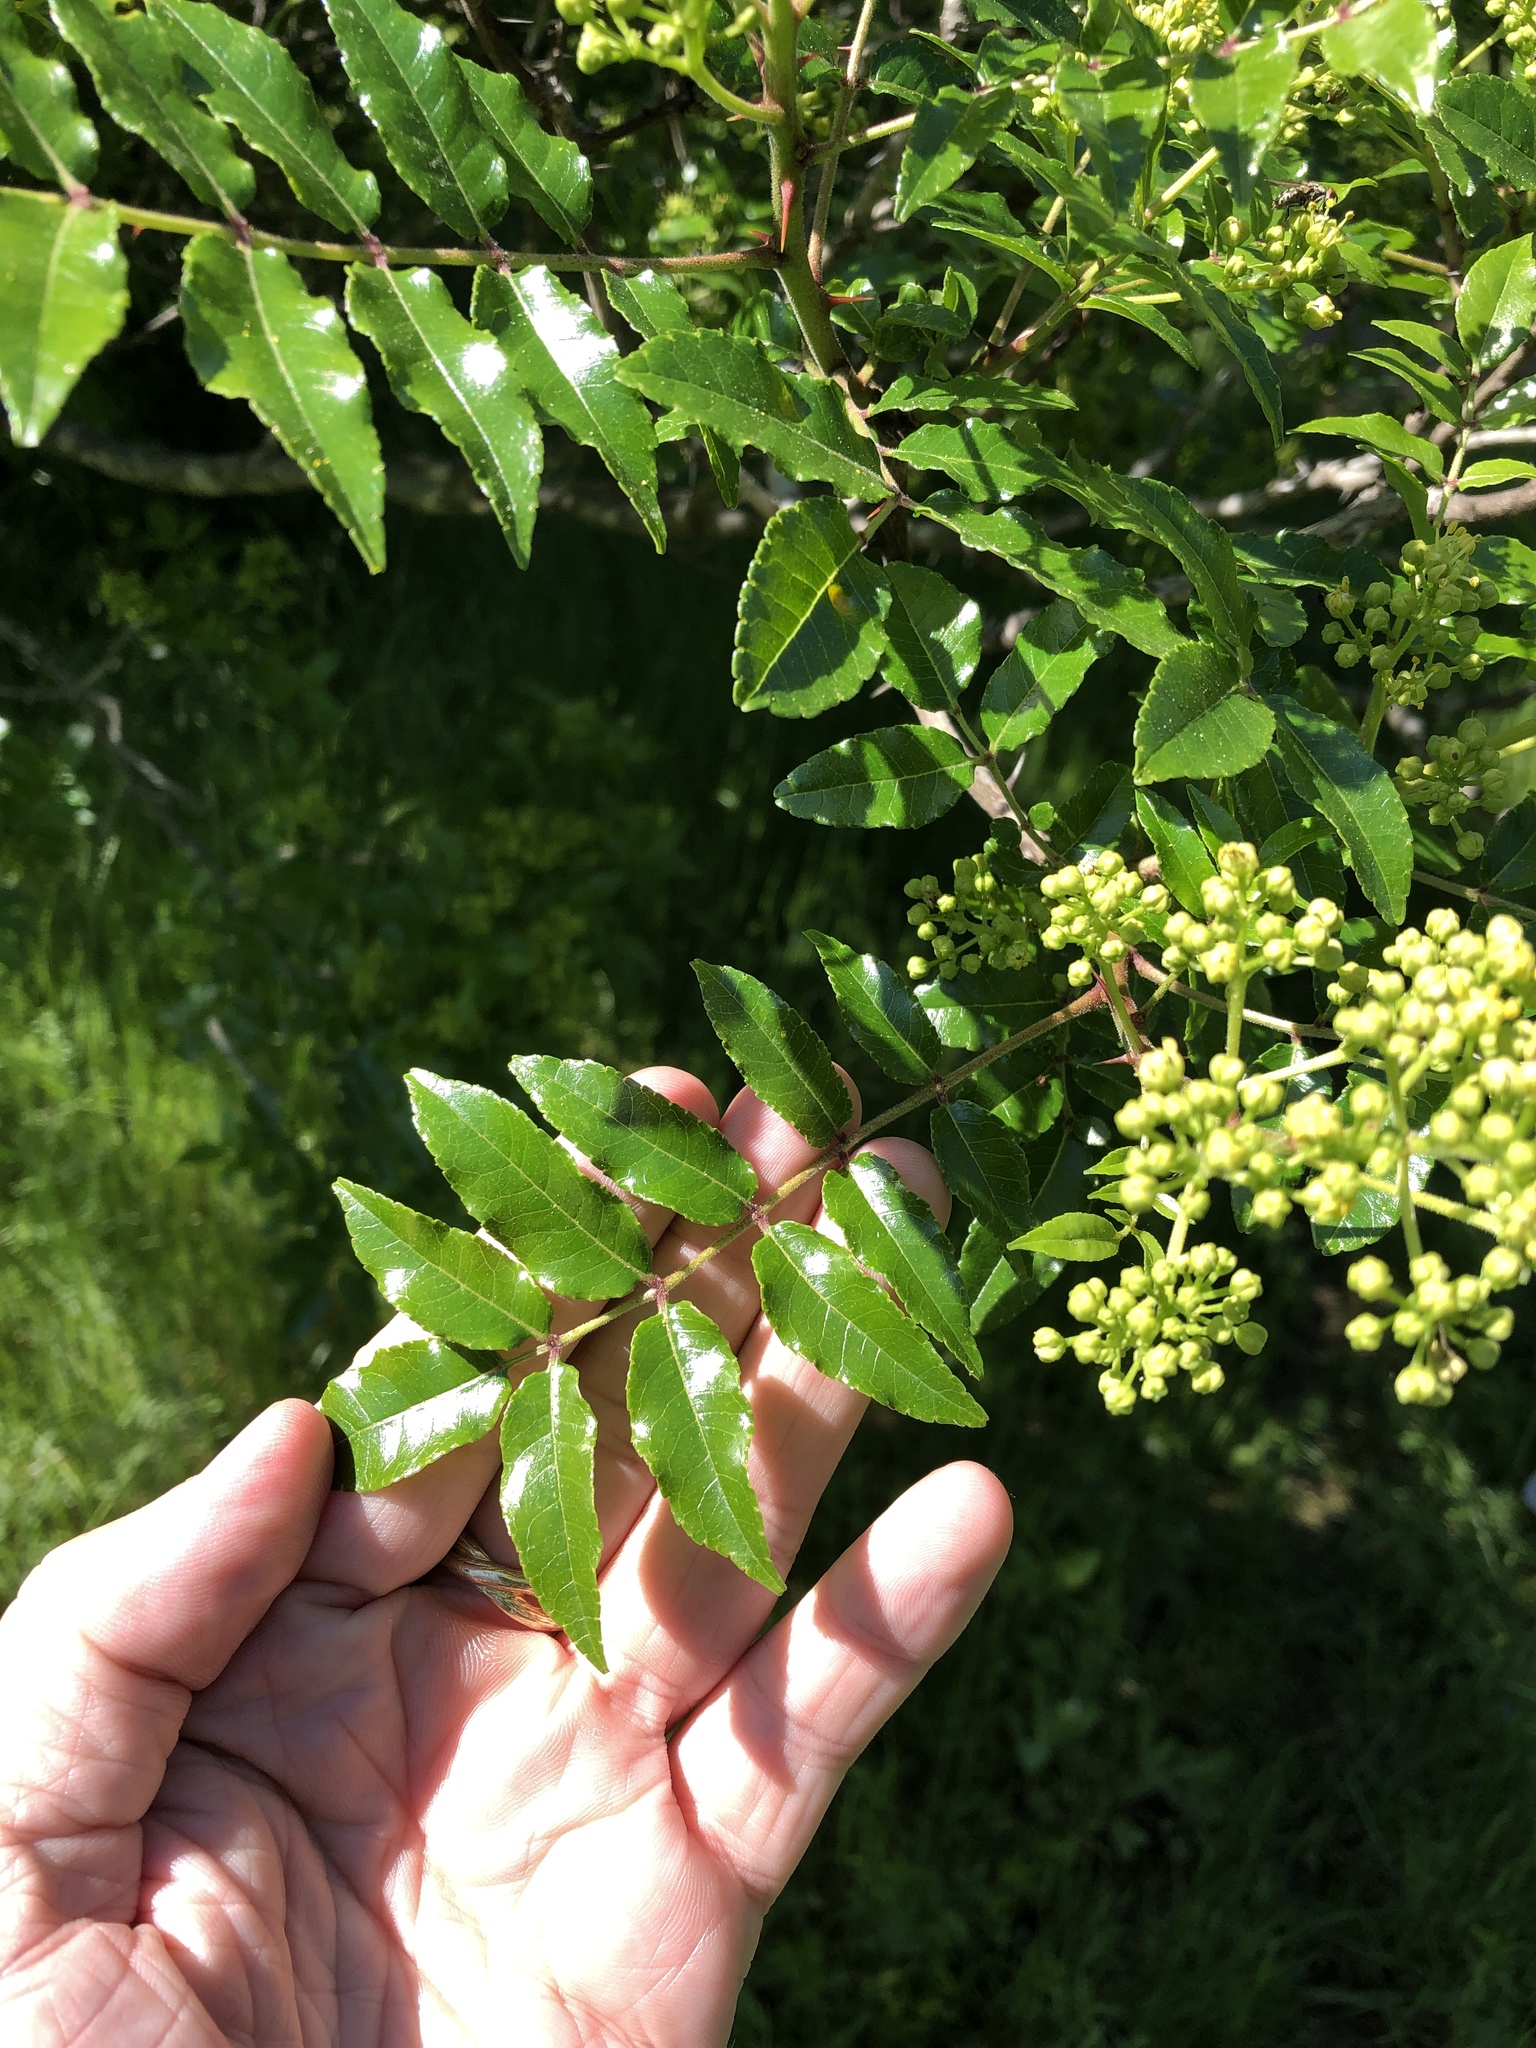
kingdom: Plantae
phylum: Tracheophyta
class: Magnoliopsida
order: Sapindales
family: Rutaceae
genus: Zanthoxylum
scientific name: Zanthoxylum clava-herculis
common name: Hercules'-club
